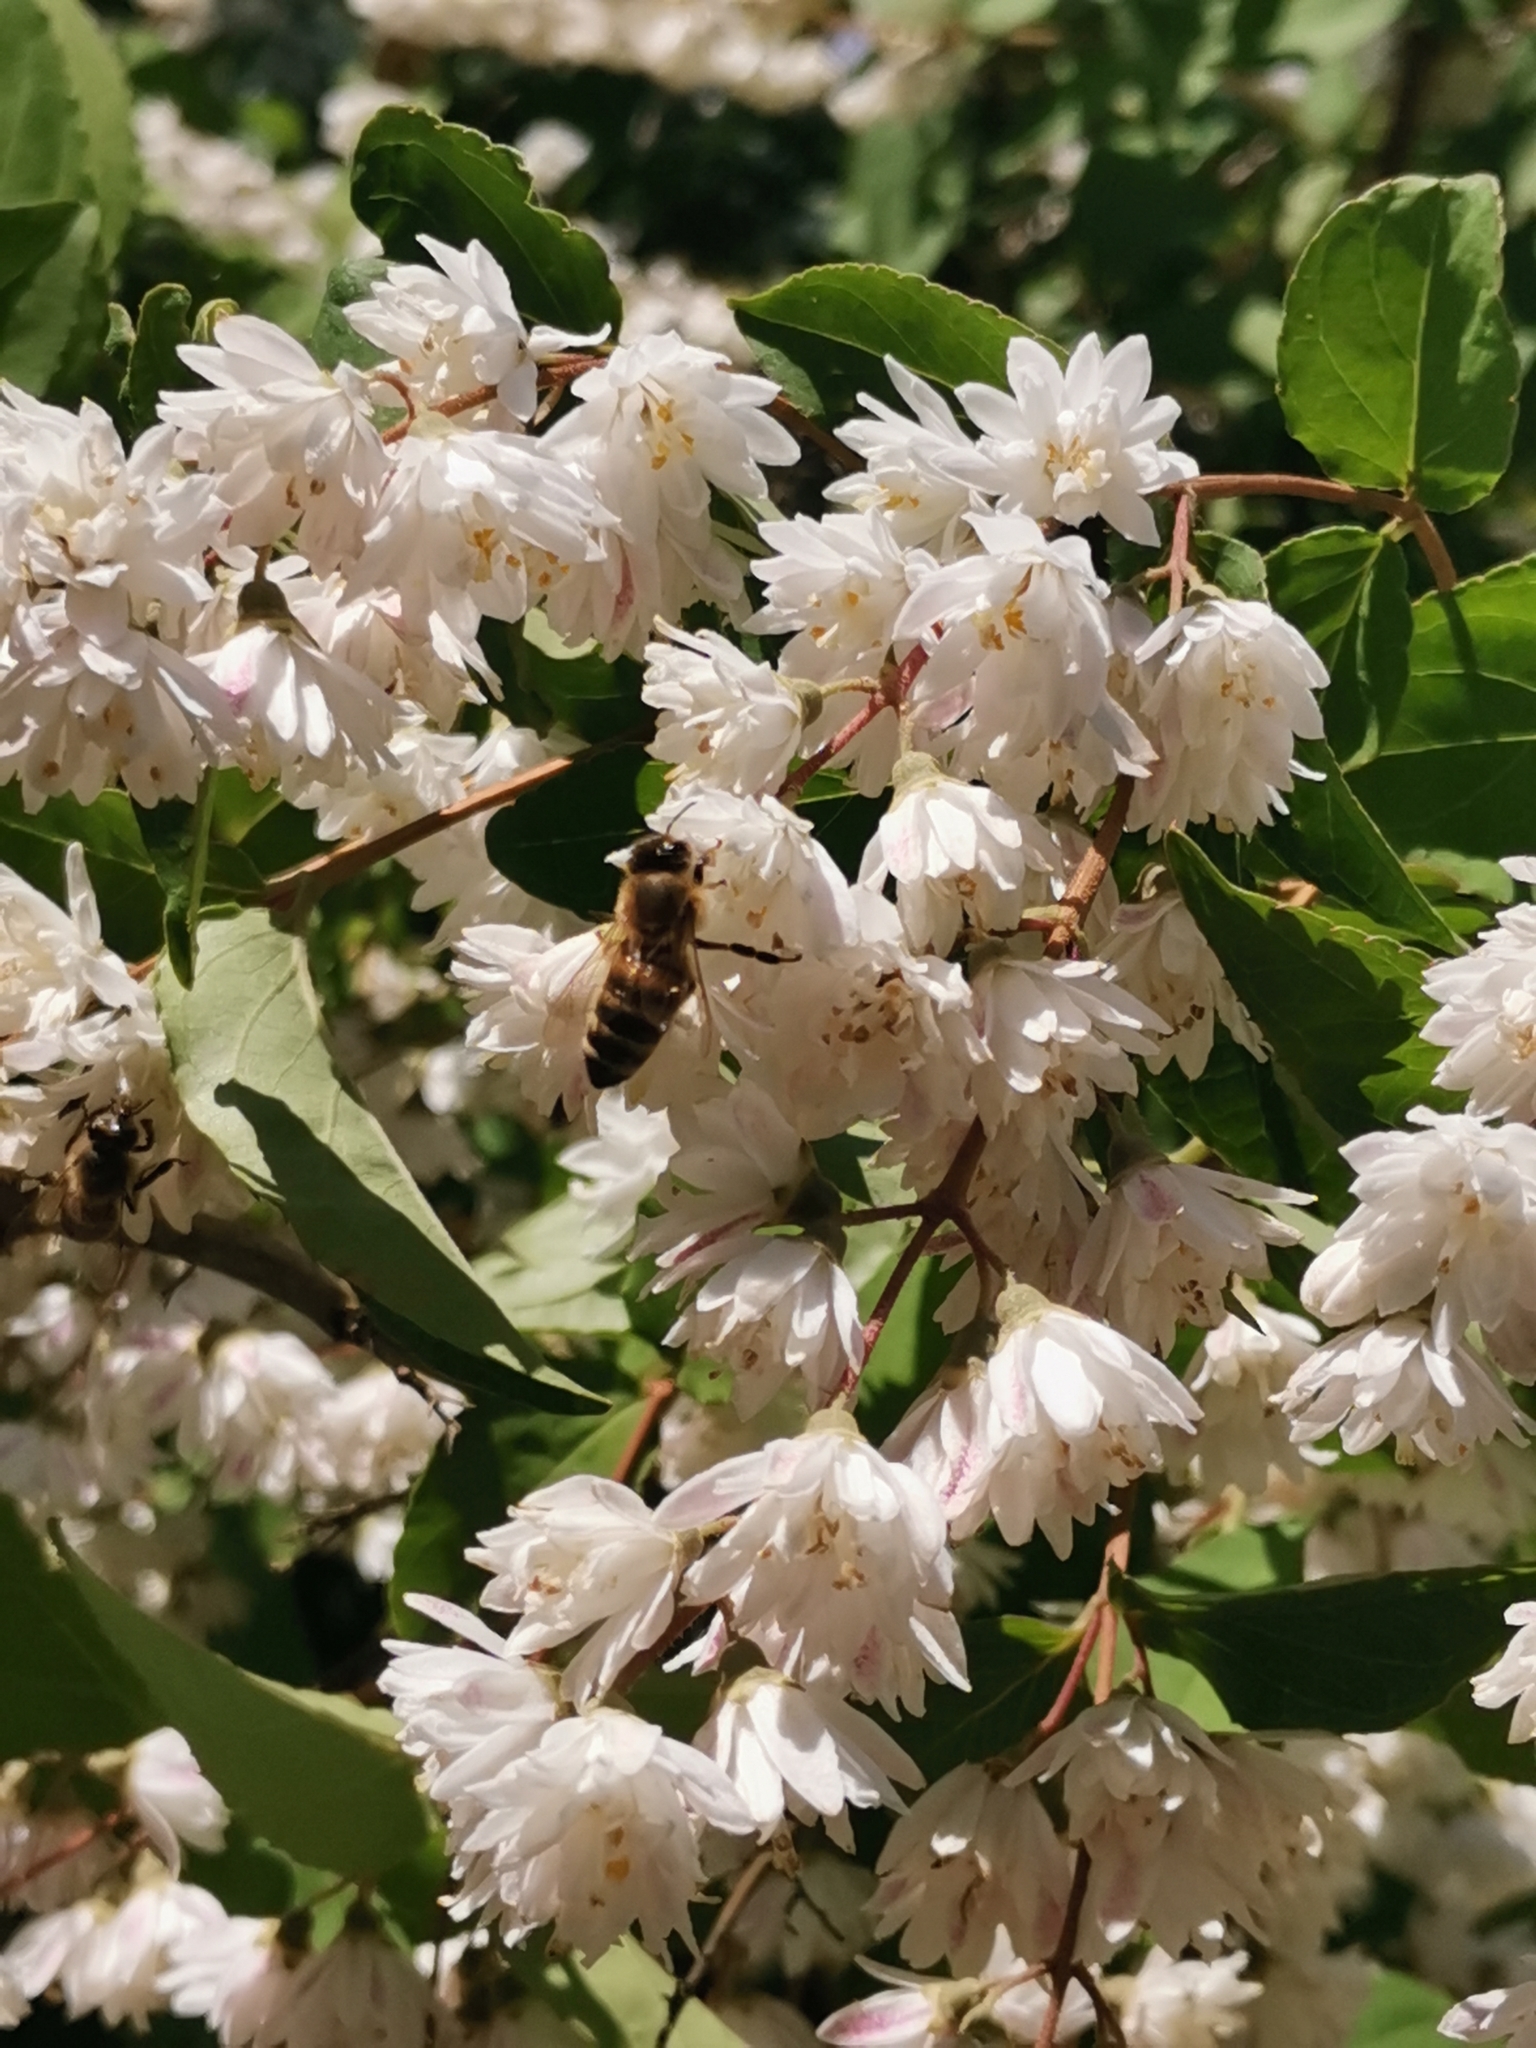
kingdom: Animalia
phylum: Arthropoda
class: Insecta
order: Hymenoptera
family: Apidae
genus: Apis
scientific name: Apis mellifera
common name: Honey bee
